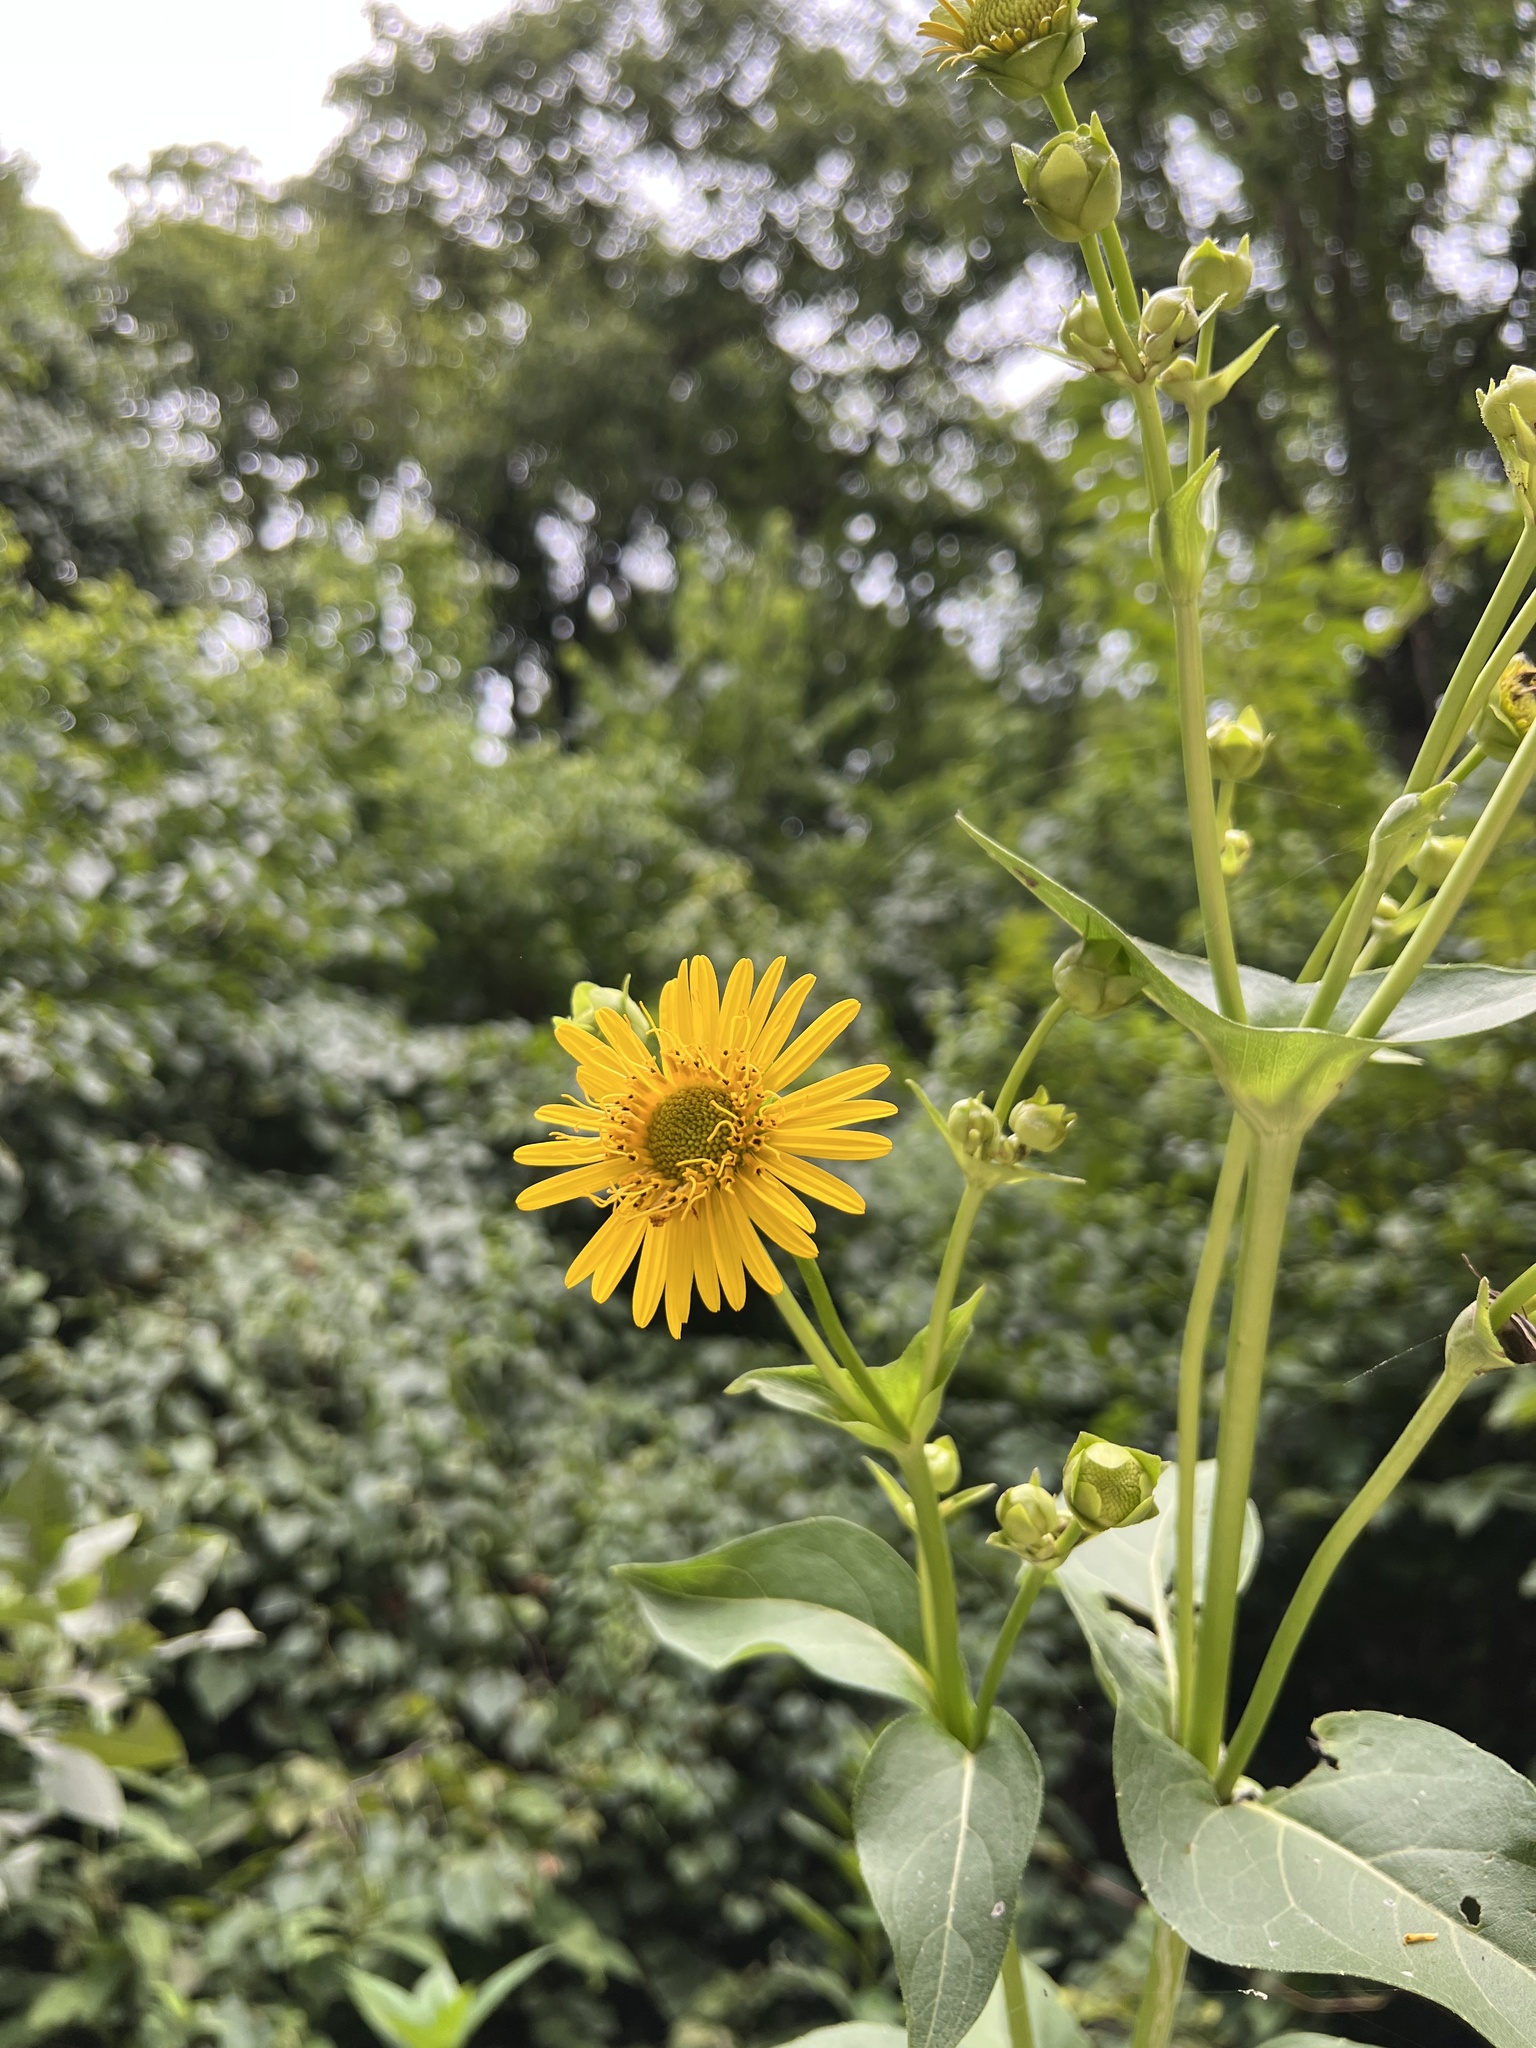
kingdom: Plantae
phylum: Tracheophyta
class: Magnoliopsida
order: Asterales
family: Asteraceae
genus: Silphium
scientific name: Silphium perfoliatum
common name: Cup-plant
